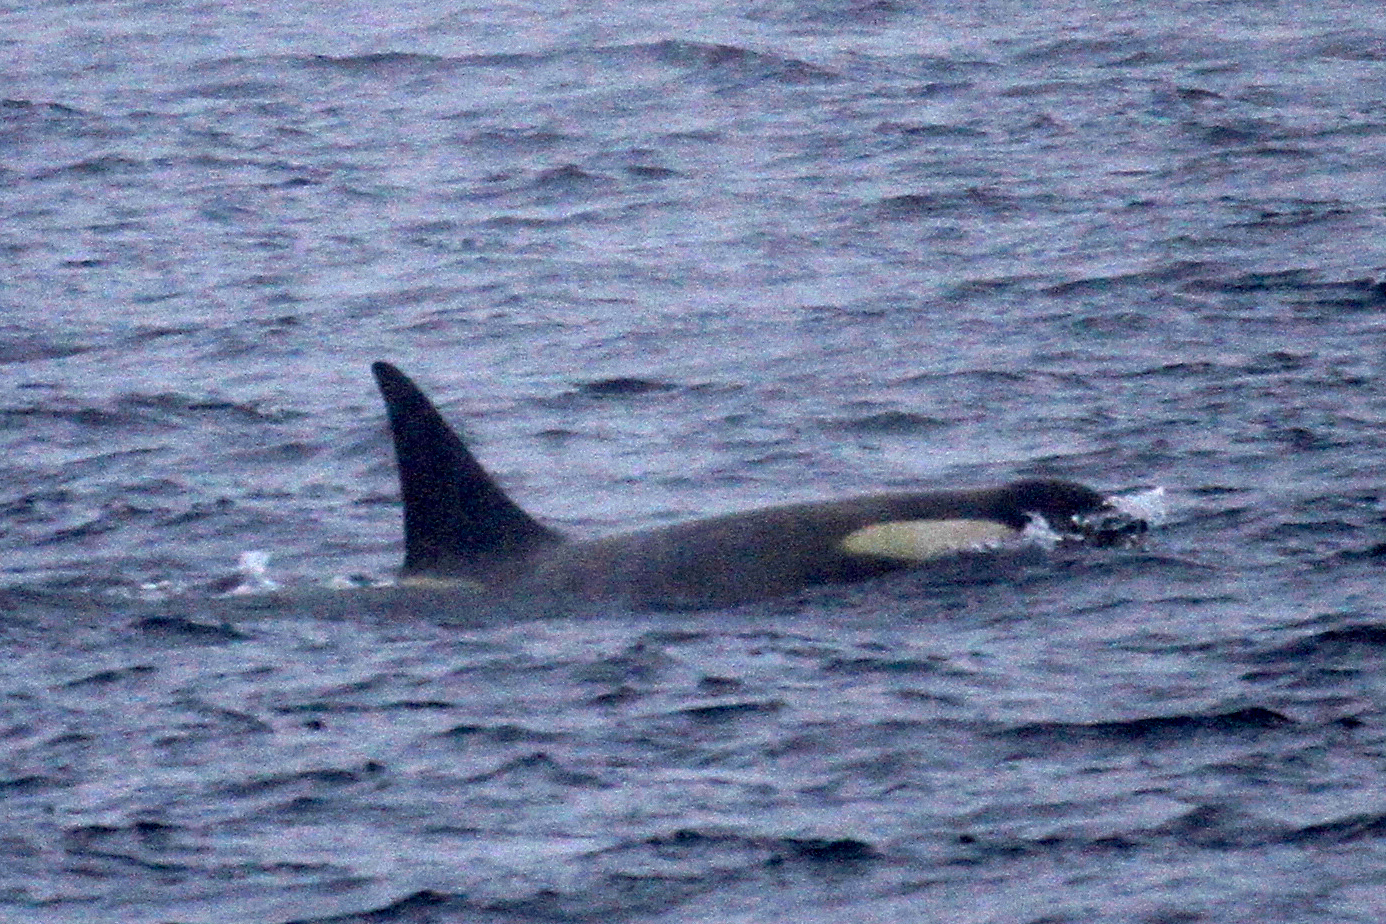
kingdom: Animalia
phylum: Chordata
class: Mammalia
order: Cetacea
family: Delphinidae
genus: Orcinus
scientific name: Orcinus orca
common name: Killer whale
